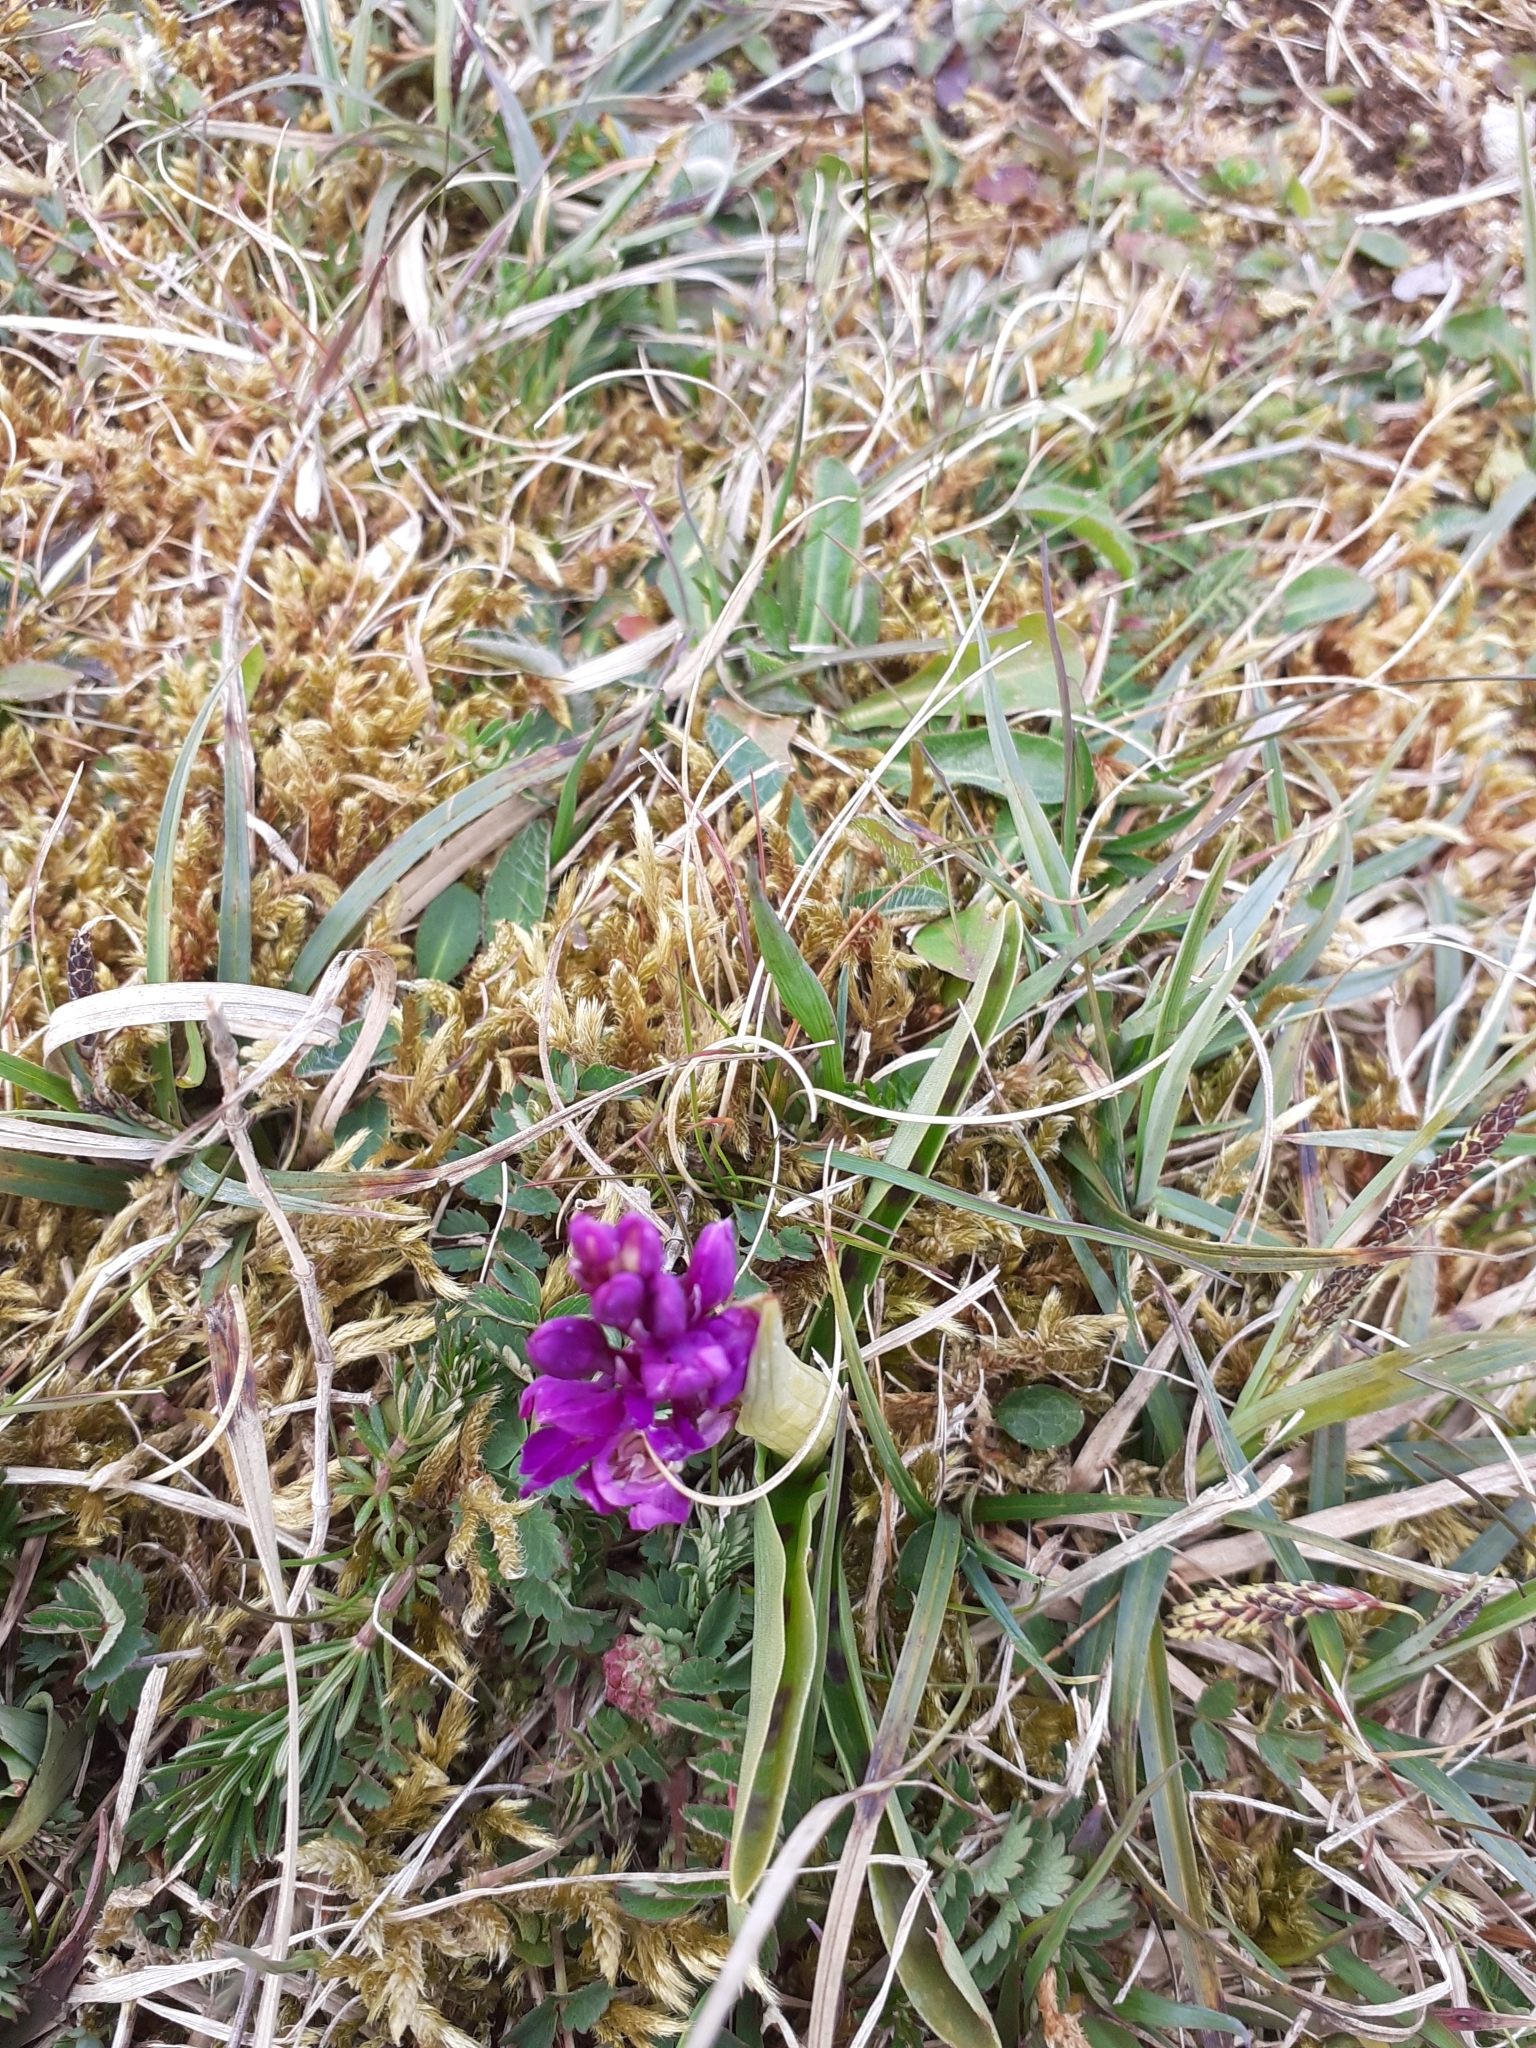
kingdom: Plantae
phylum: Tracheophyta
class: Liliopsida
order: Asparagales
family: Orchidaceae
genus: Orchis
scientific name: Orchis mascula
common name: Early-purple orchid
